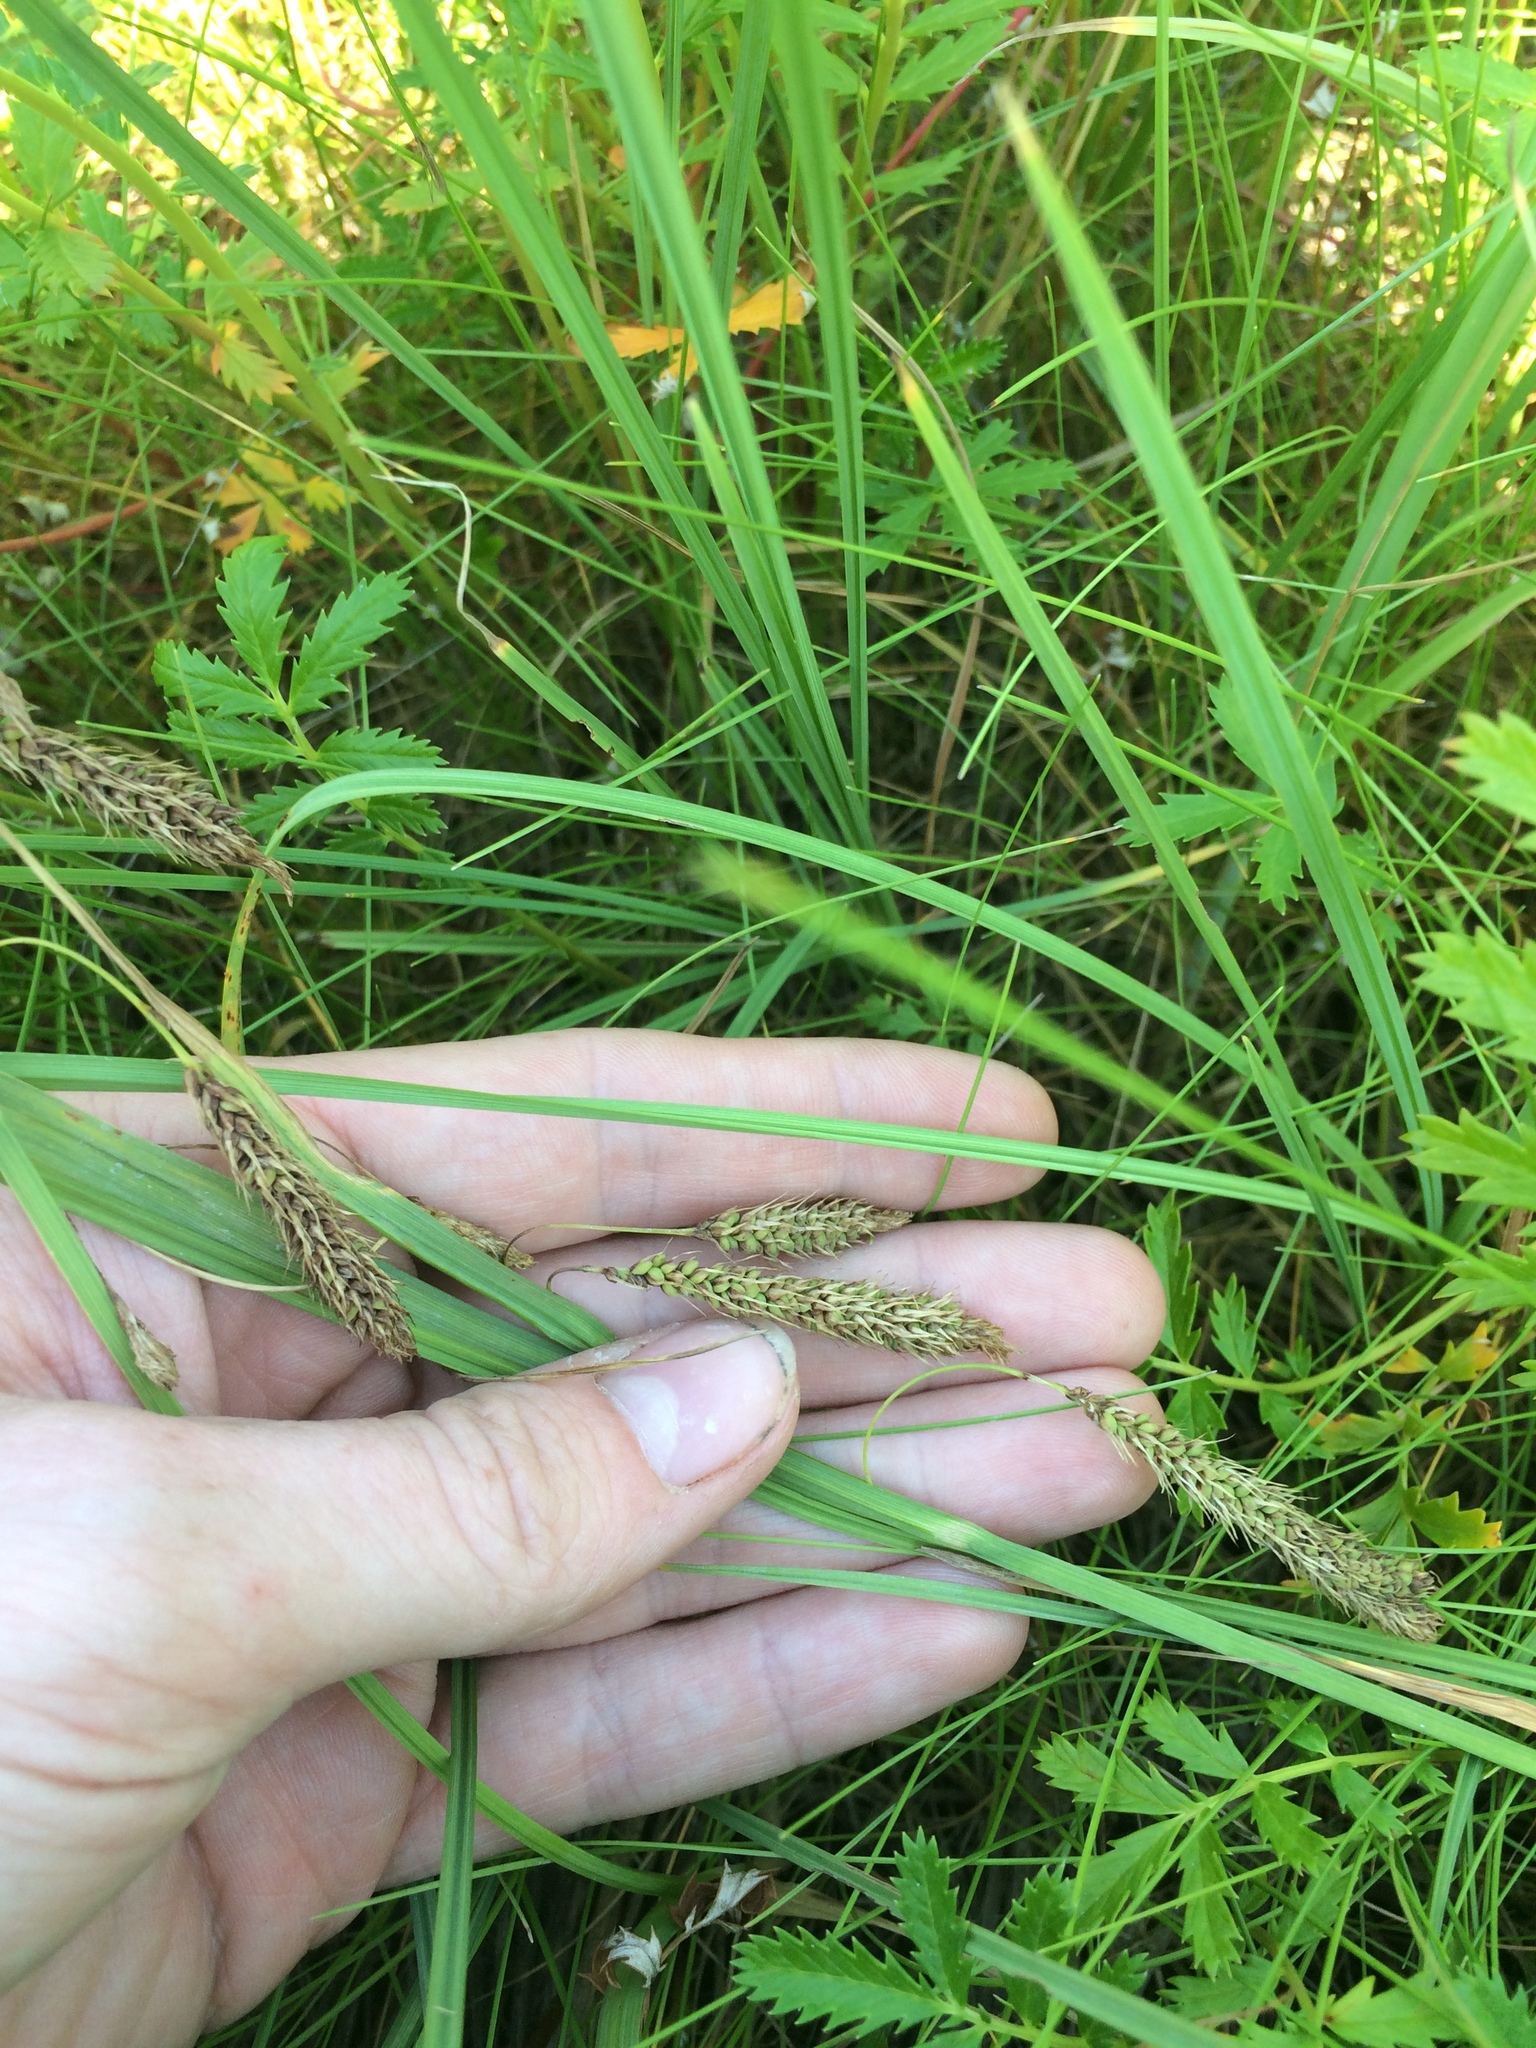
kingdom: Plantae
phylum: Tracheophyta
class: Liliopsida
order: Poales
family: Cyperaceae
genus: Carex
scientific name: Carex paleacea
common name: Chaffy sedge
